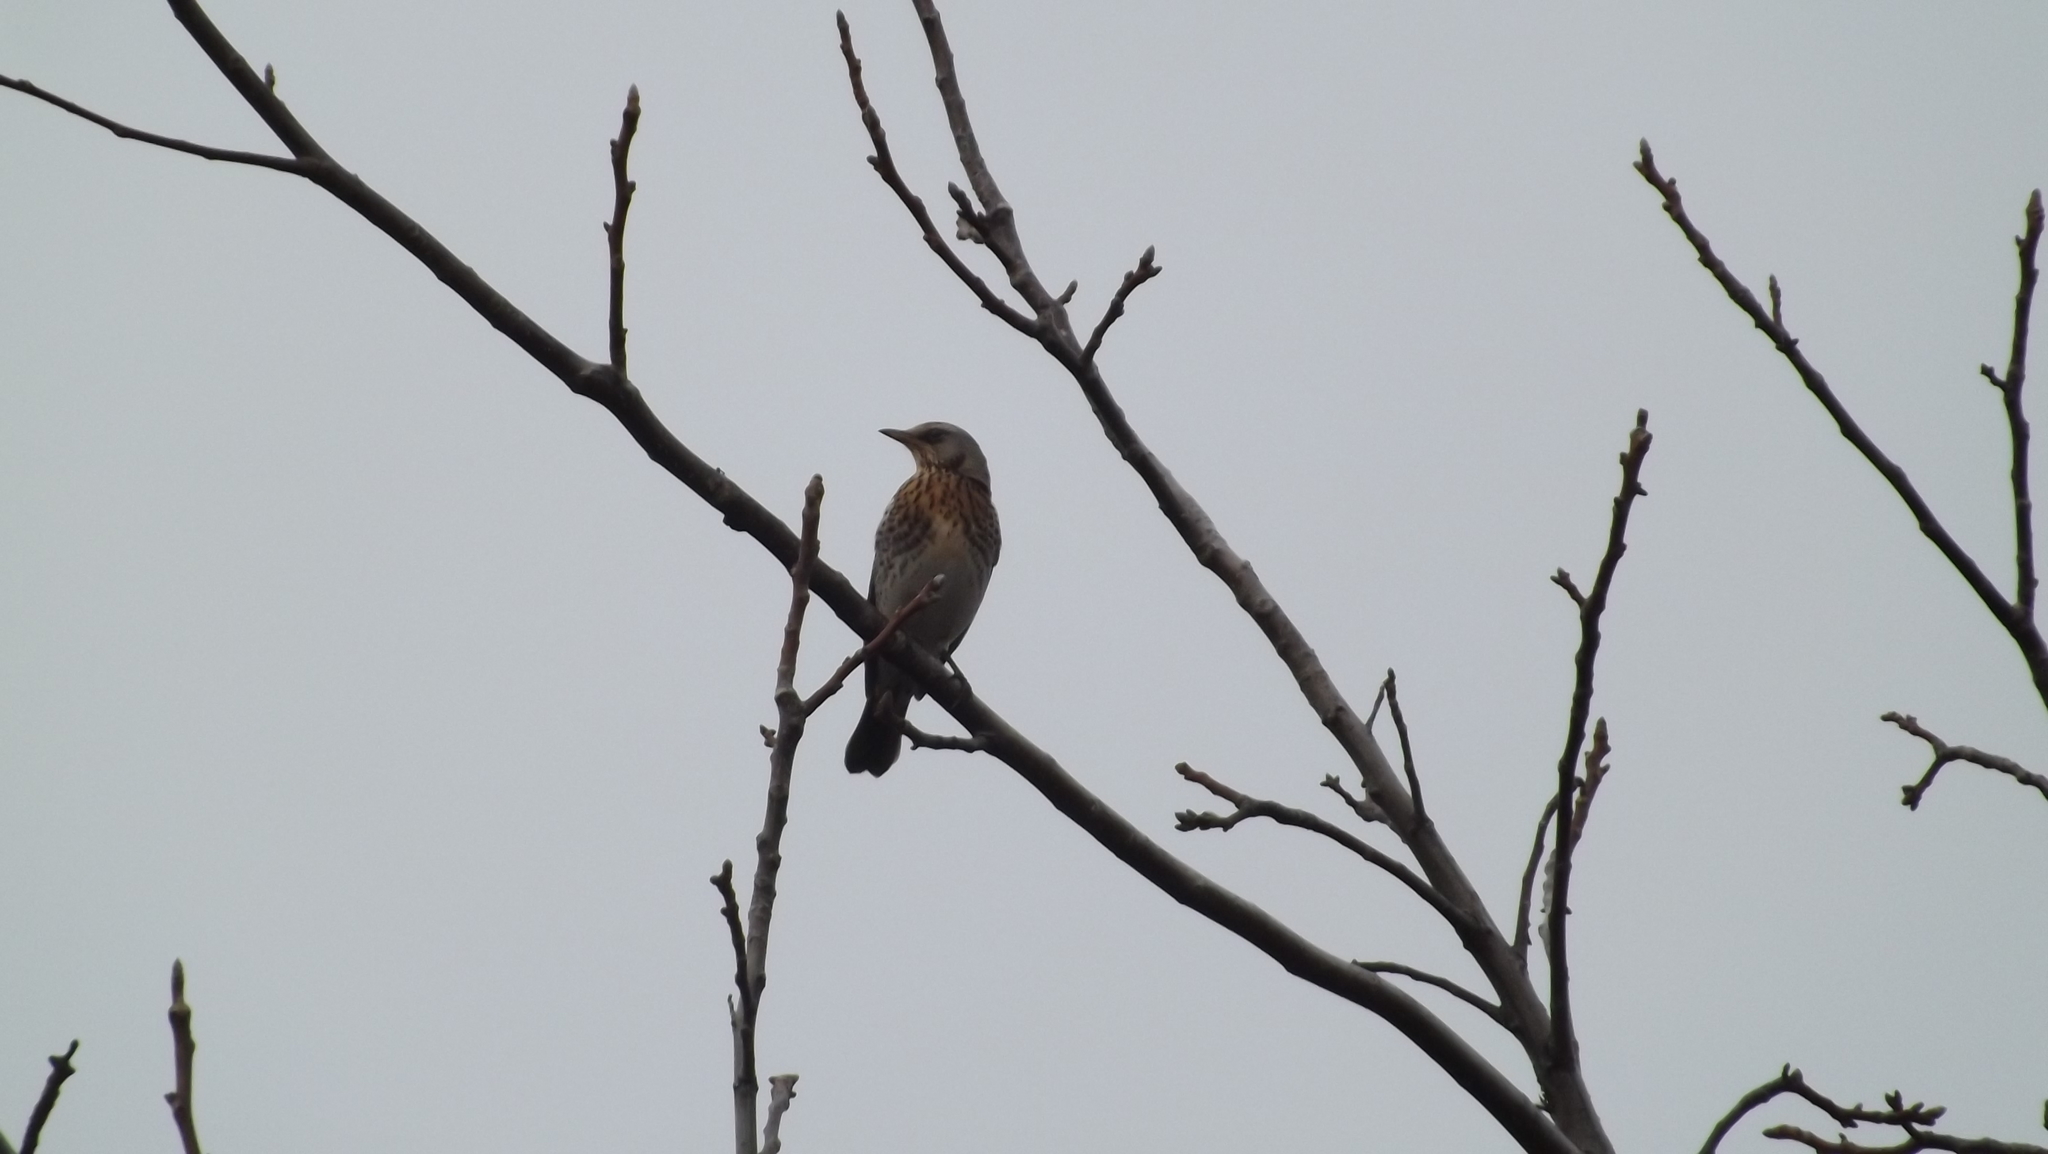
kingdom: Animalia
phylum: Chordata
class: Aves
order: Passeriformes
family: Turdidae
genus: Turdus
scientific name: Turdus pilaris
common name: Fieldfare
